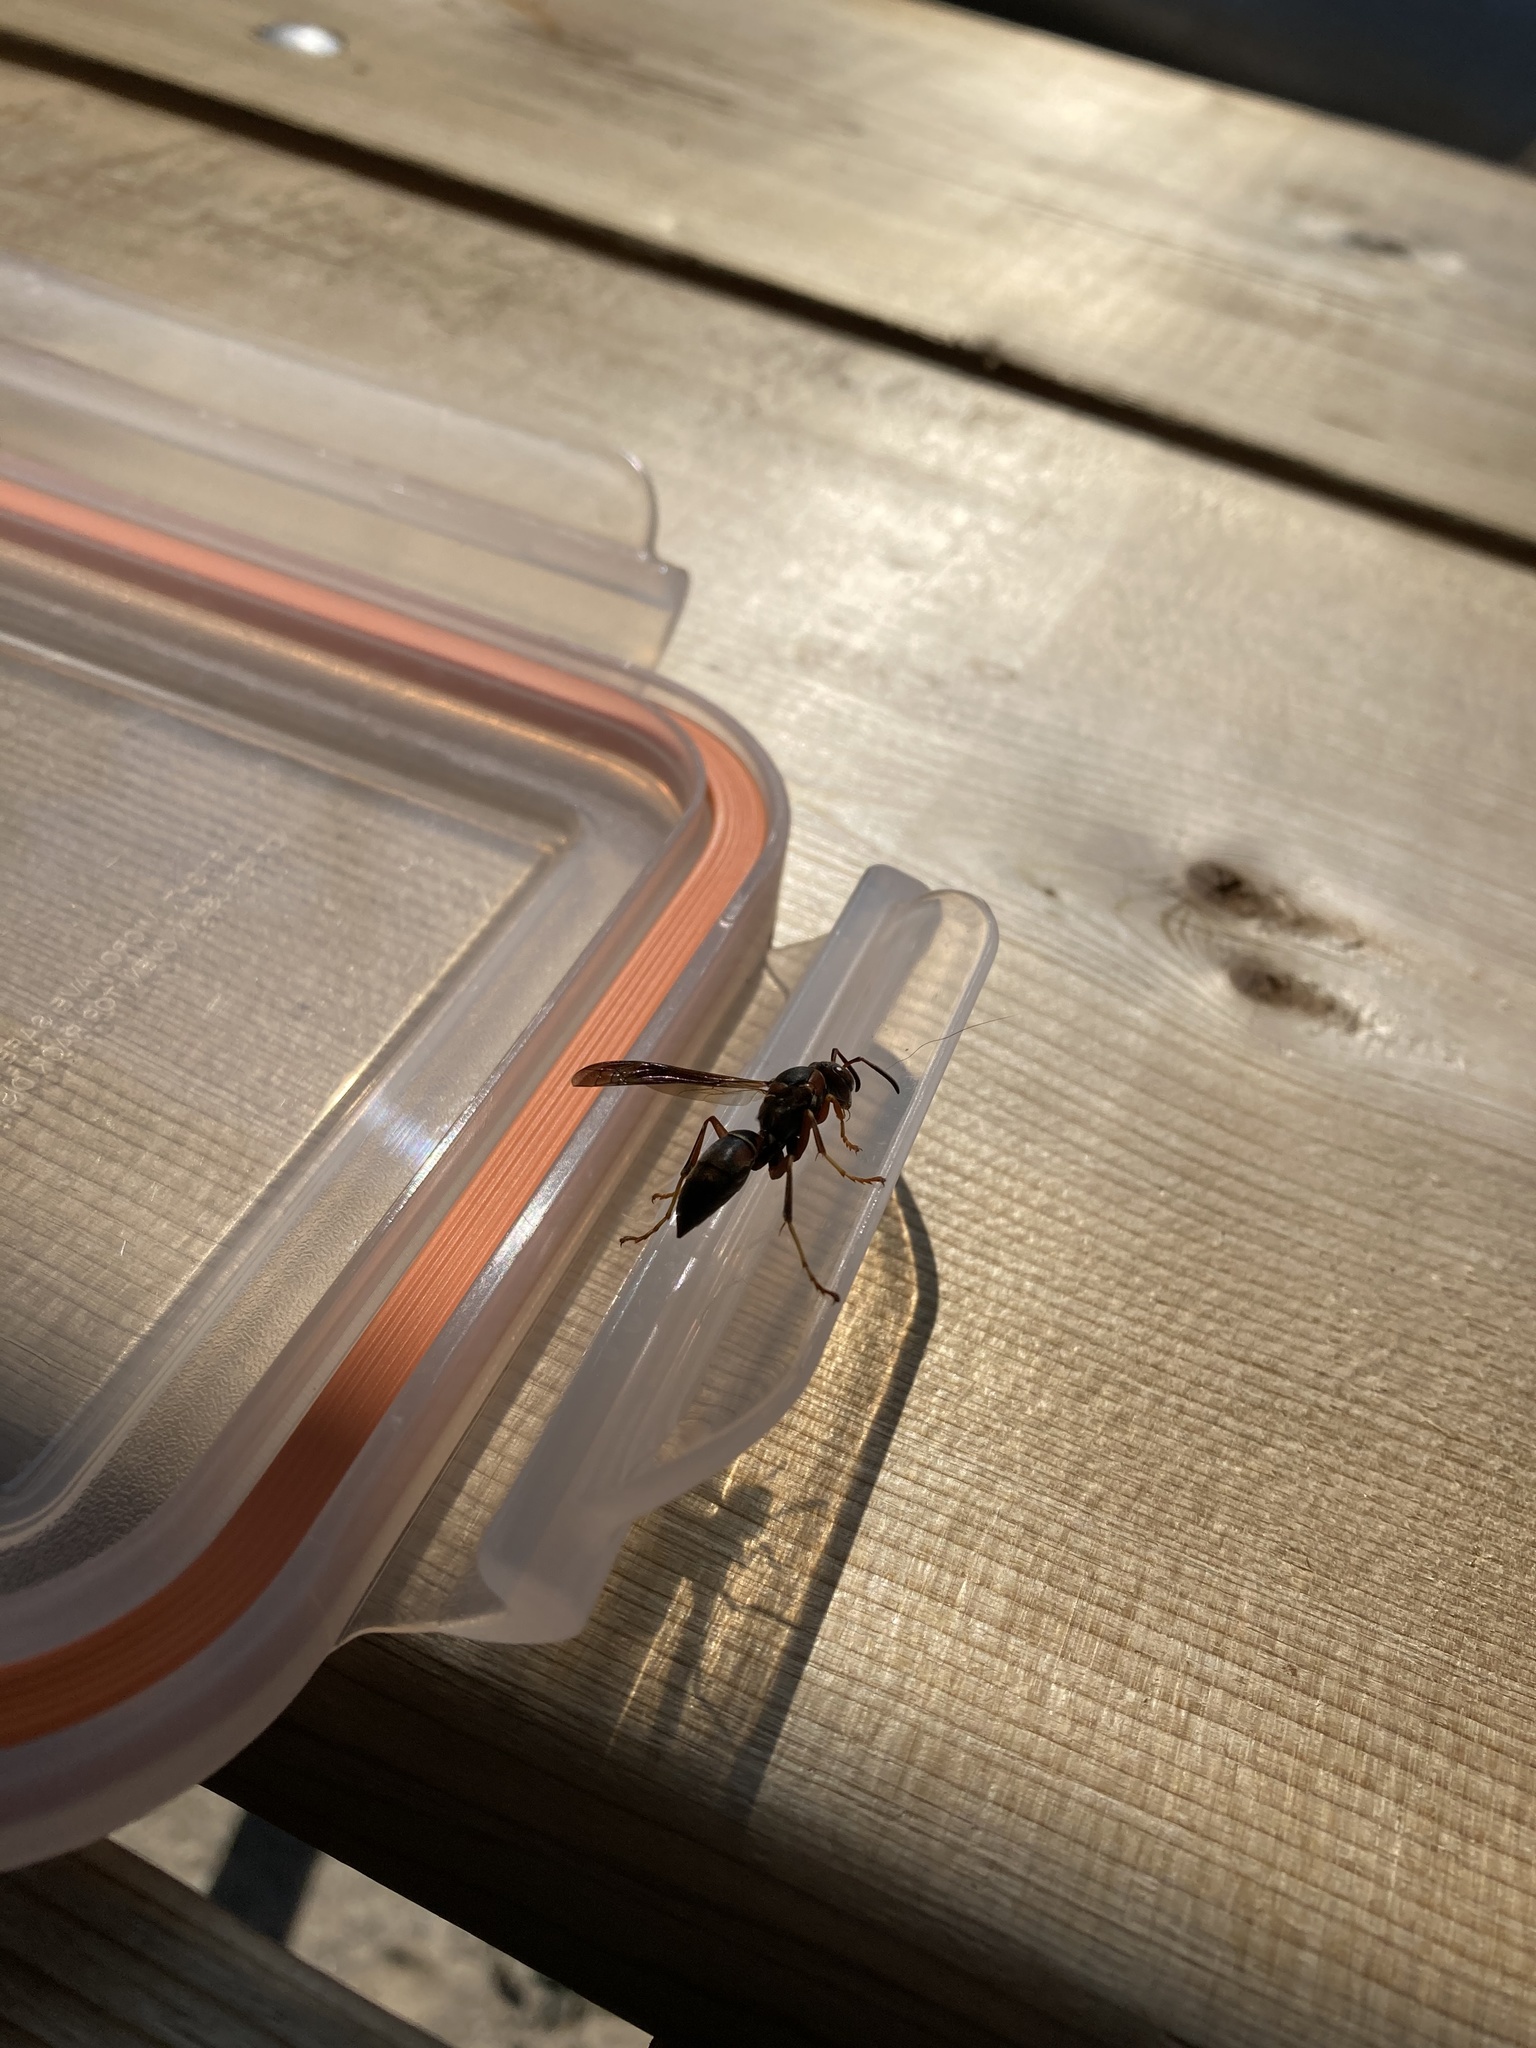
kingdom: Animalia
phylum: Arthropoda
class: Insecta
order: Hymenoptera
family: Eumenidae
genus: Polistes
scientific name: Polistes fuscatus
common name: Dark paper wasp
